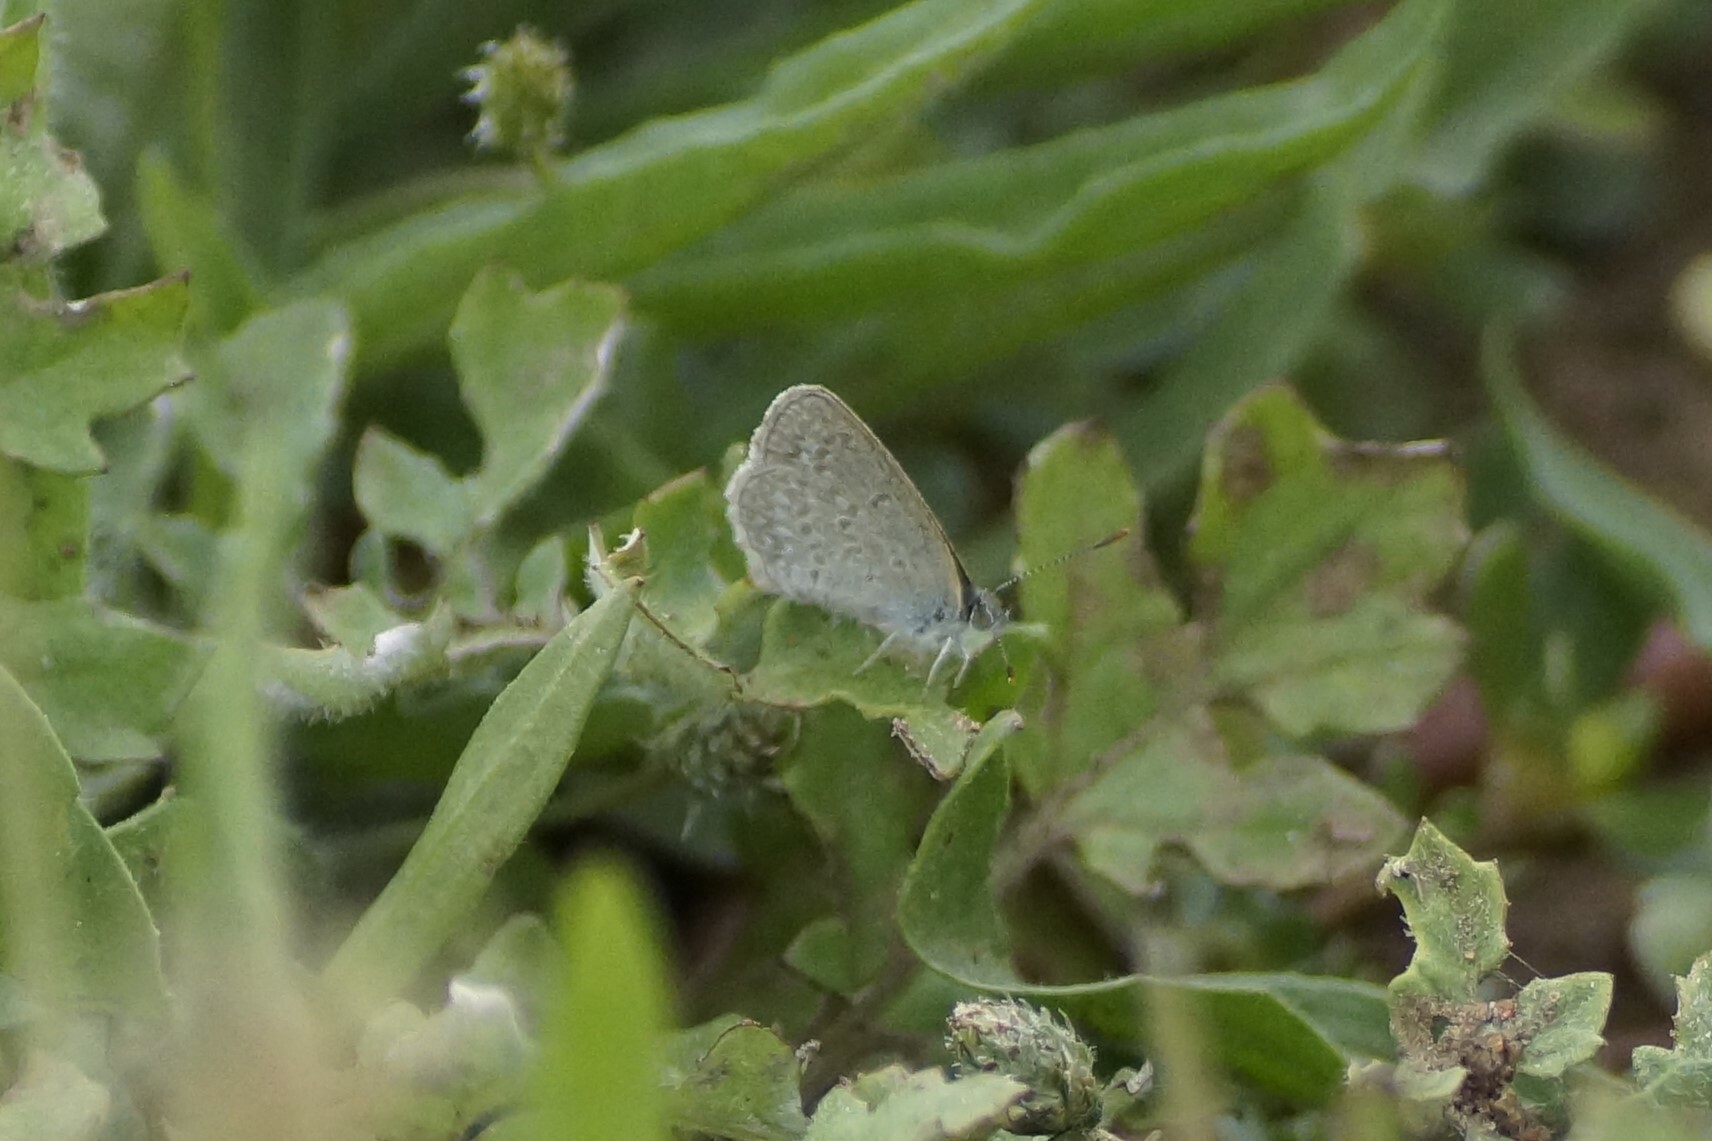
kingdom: Animalia
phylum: Arthropoda
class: Insecta
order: Lepidoptera
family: Lycaenidae
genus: Zizina
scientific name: Zizina otis
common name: Lesser grass blue
